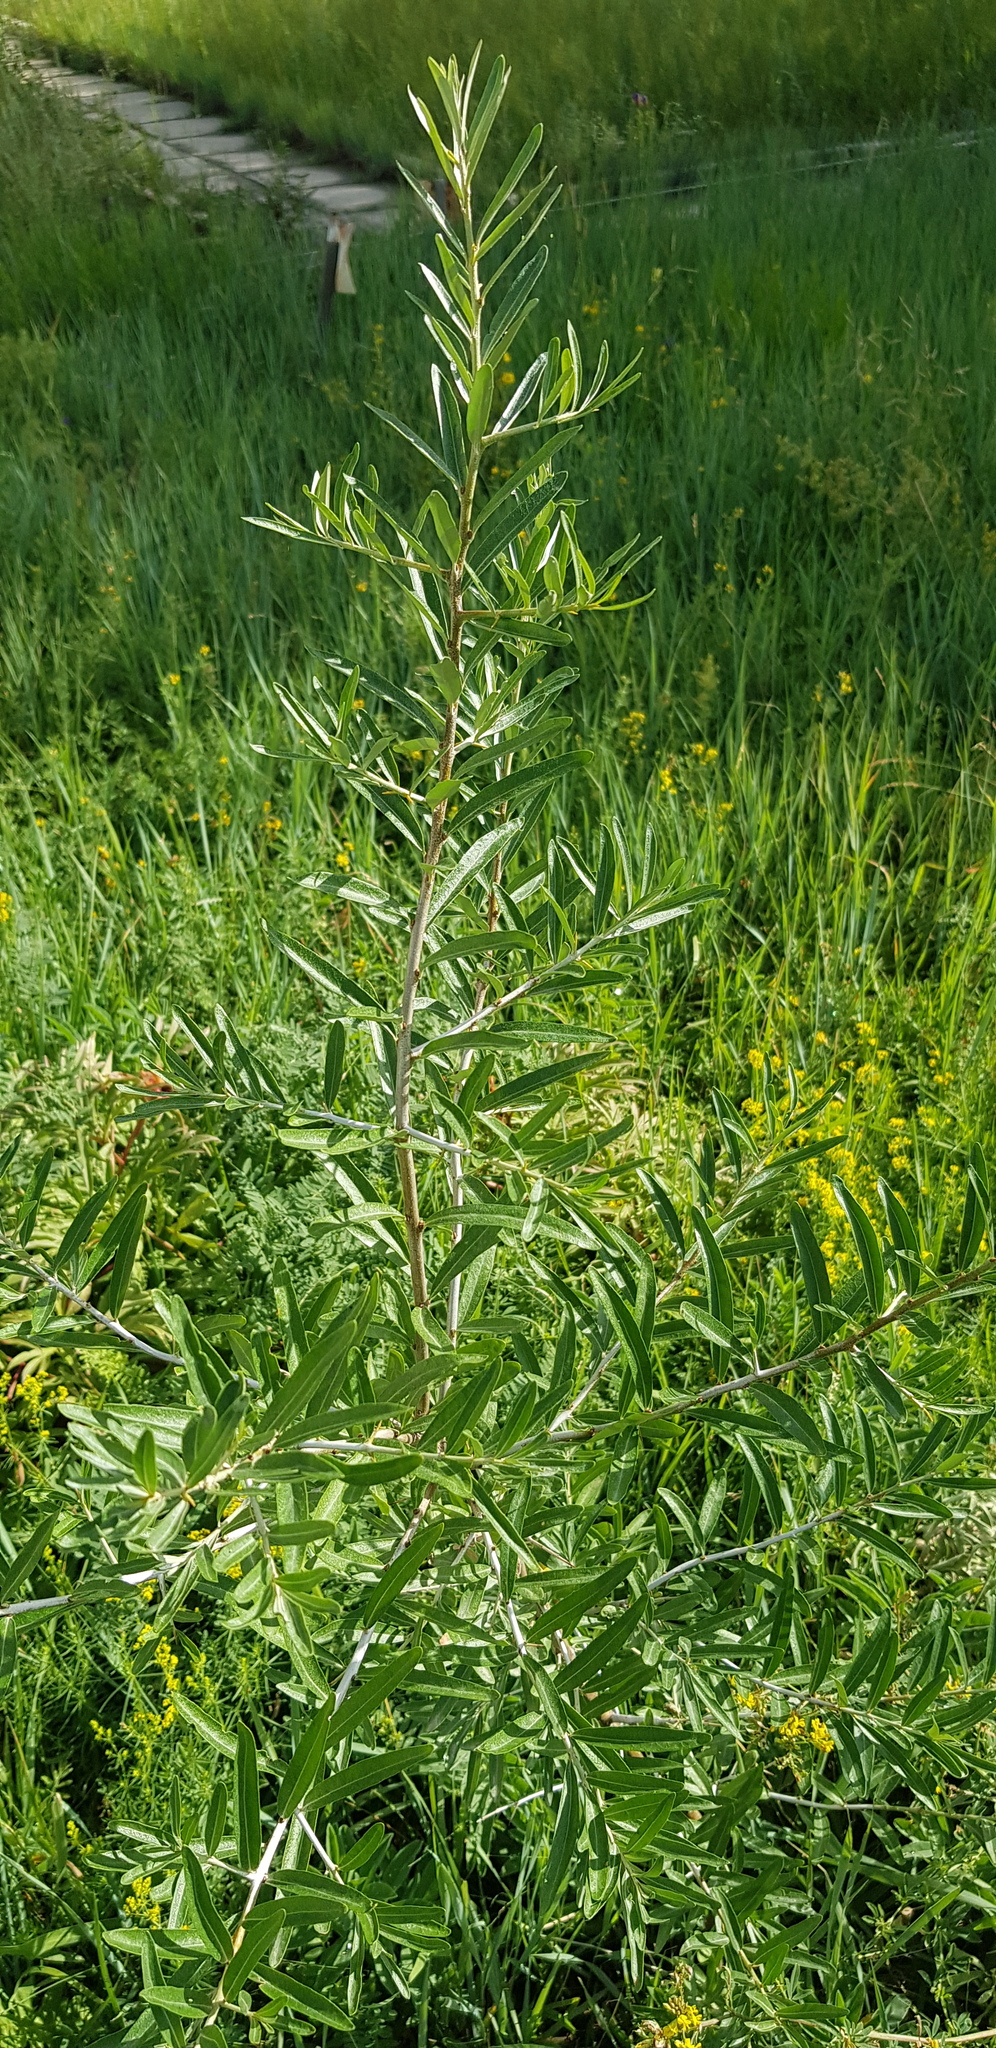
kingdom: Plantae
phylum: Tracheophyta
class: Magnoliopsida
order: Malpighiales
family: Salicaceae
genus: Salix
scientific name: Salix viminalis
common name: Osier
